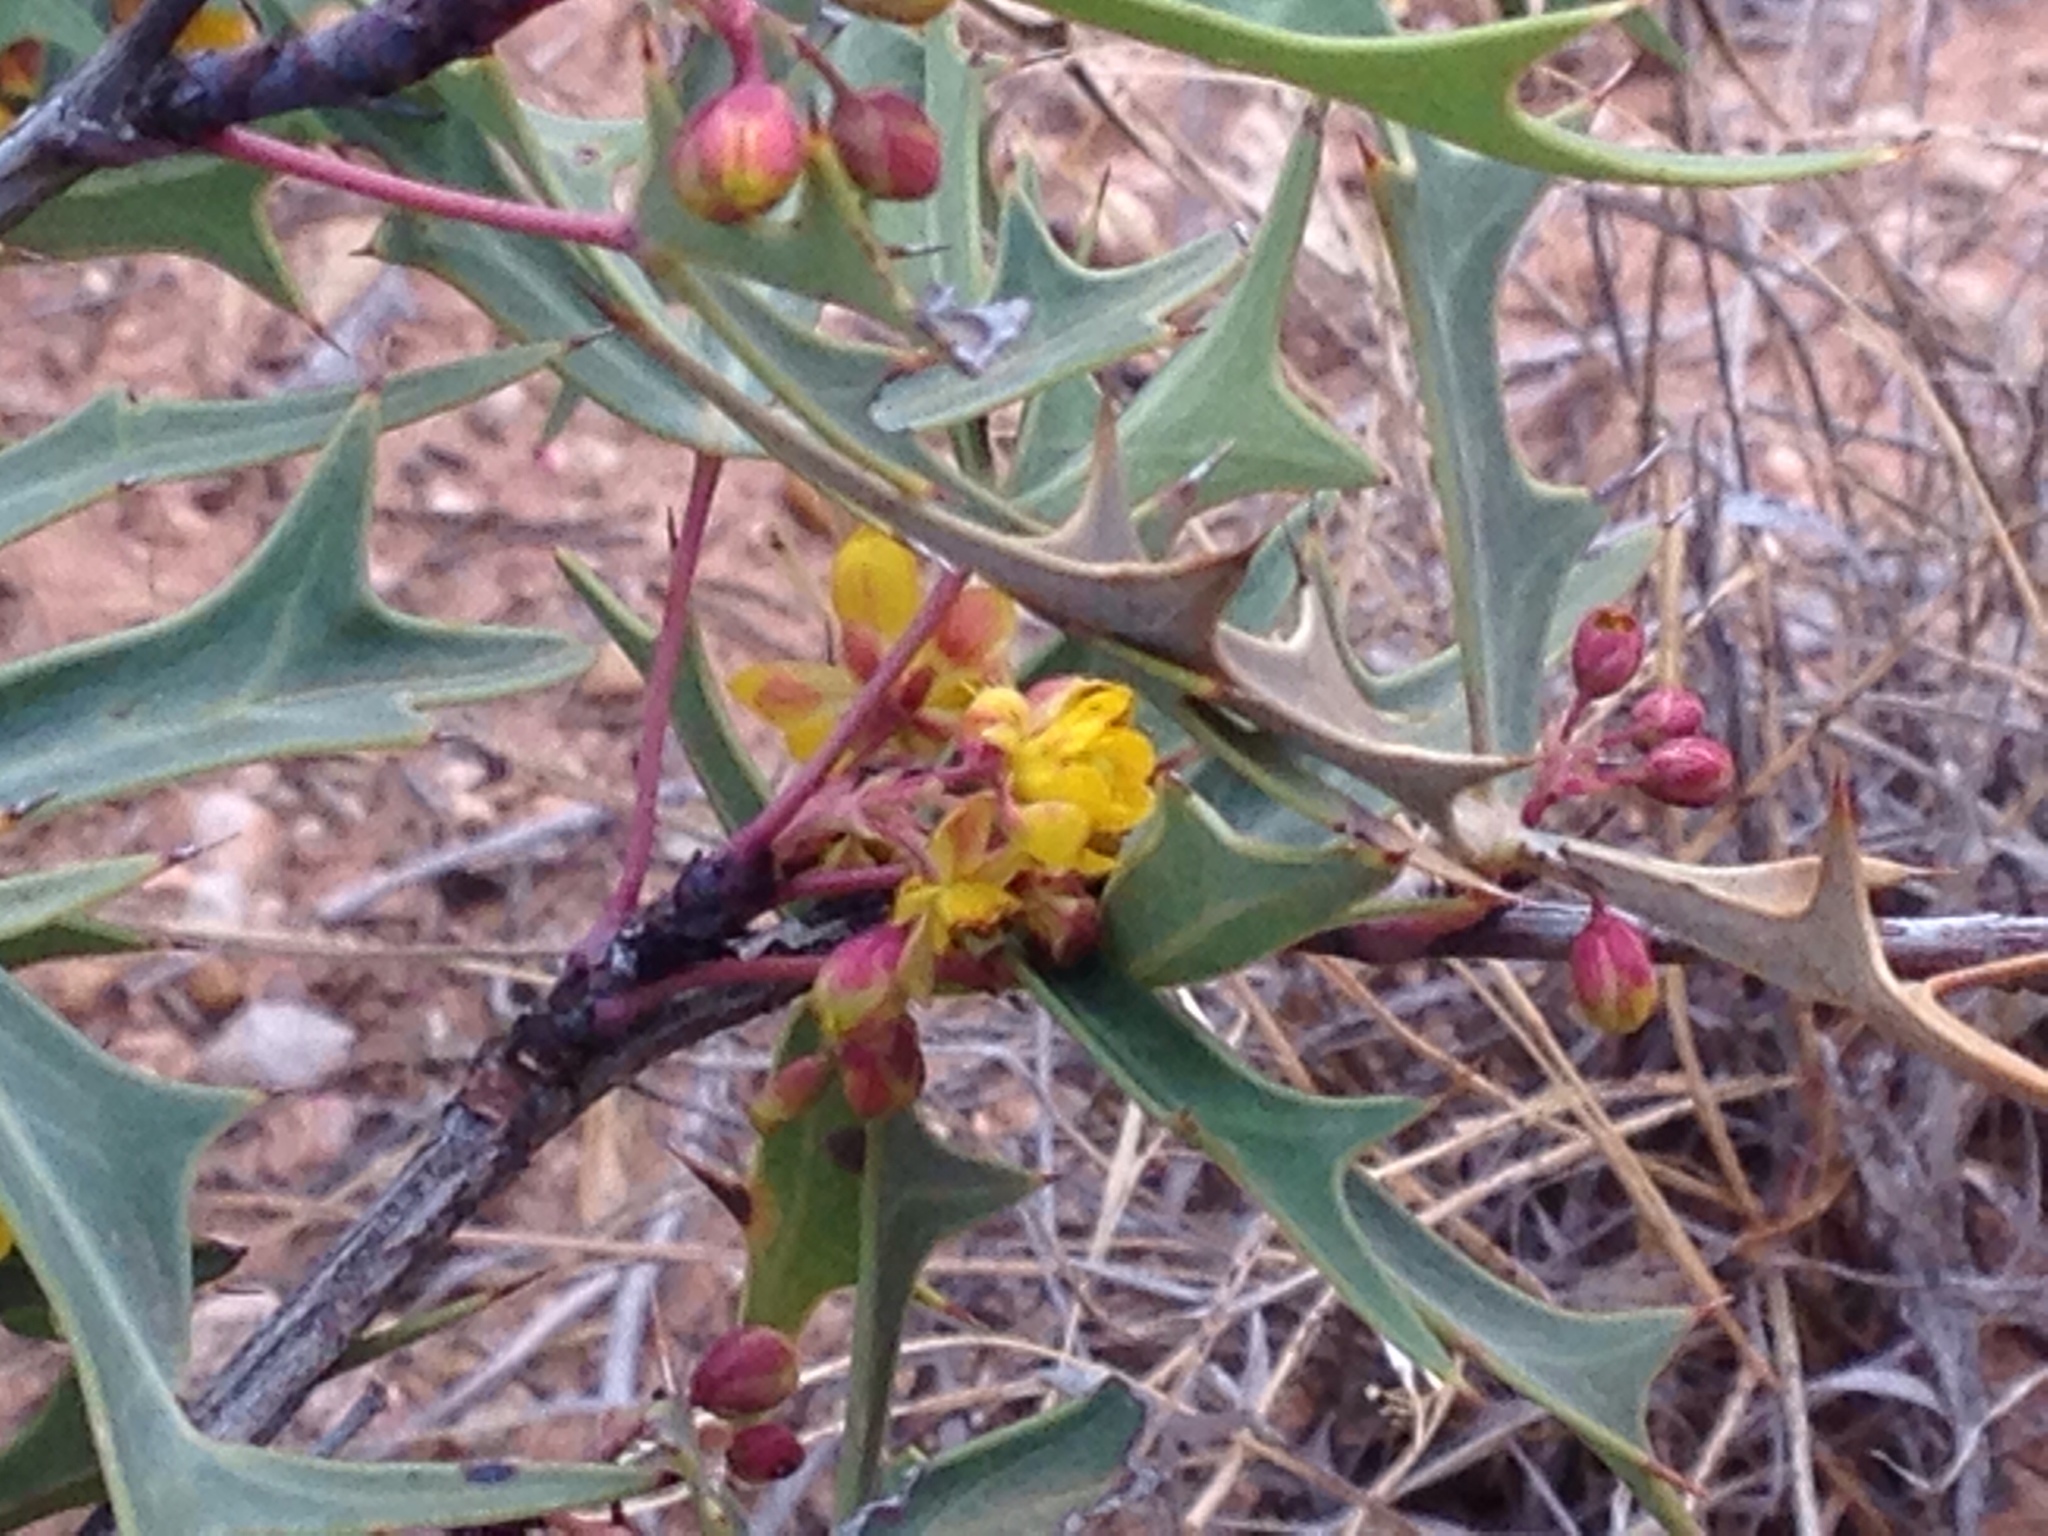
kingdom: Plantae
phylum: Tracheophyta
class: Magnoliopsida
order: Ranunculales
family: Berberidaceae
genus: Alloberberis
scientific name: Alloberberis trifoliolata
